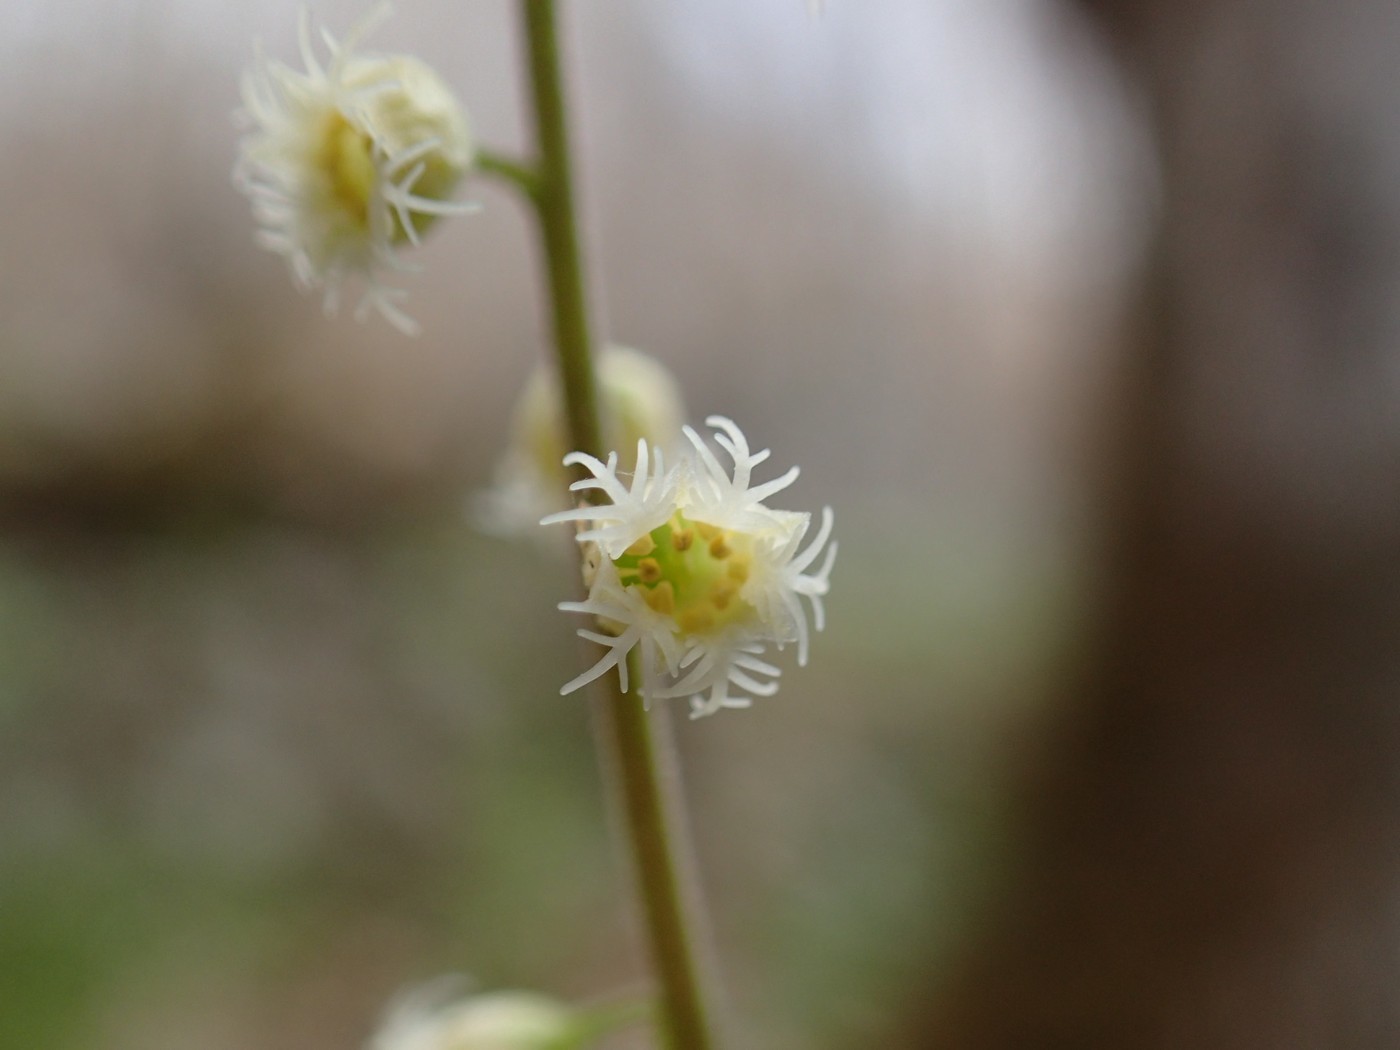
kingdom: Plantae
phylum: Tracheophyta
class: Magnoliopsida
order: Saxifragales
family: Saxifragaceae
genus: Mitella
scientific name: Mitella diphylla
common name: Coolwort
